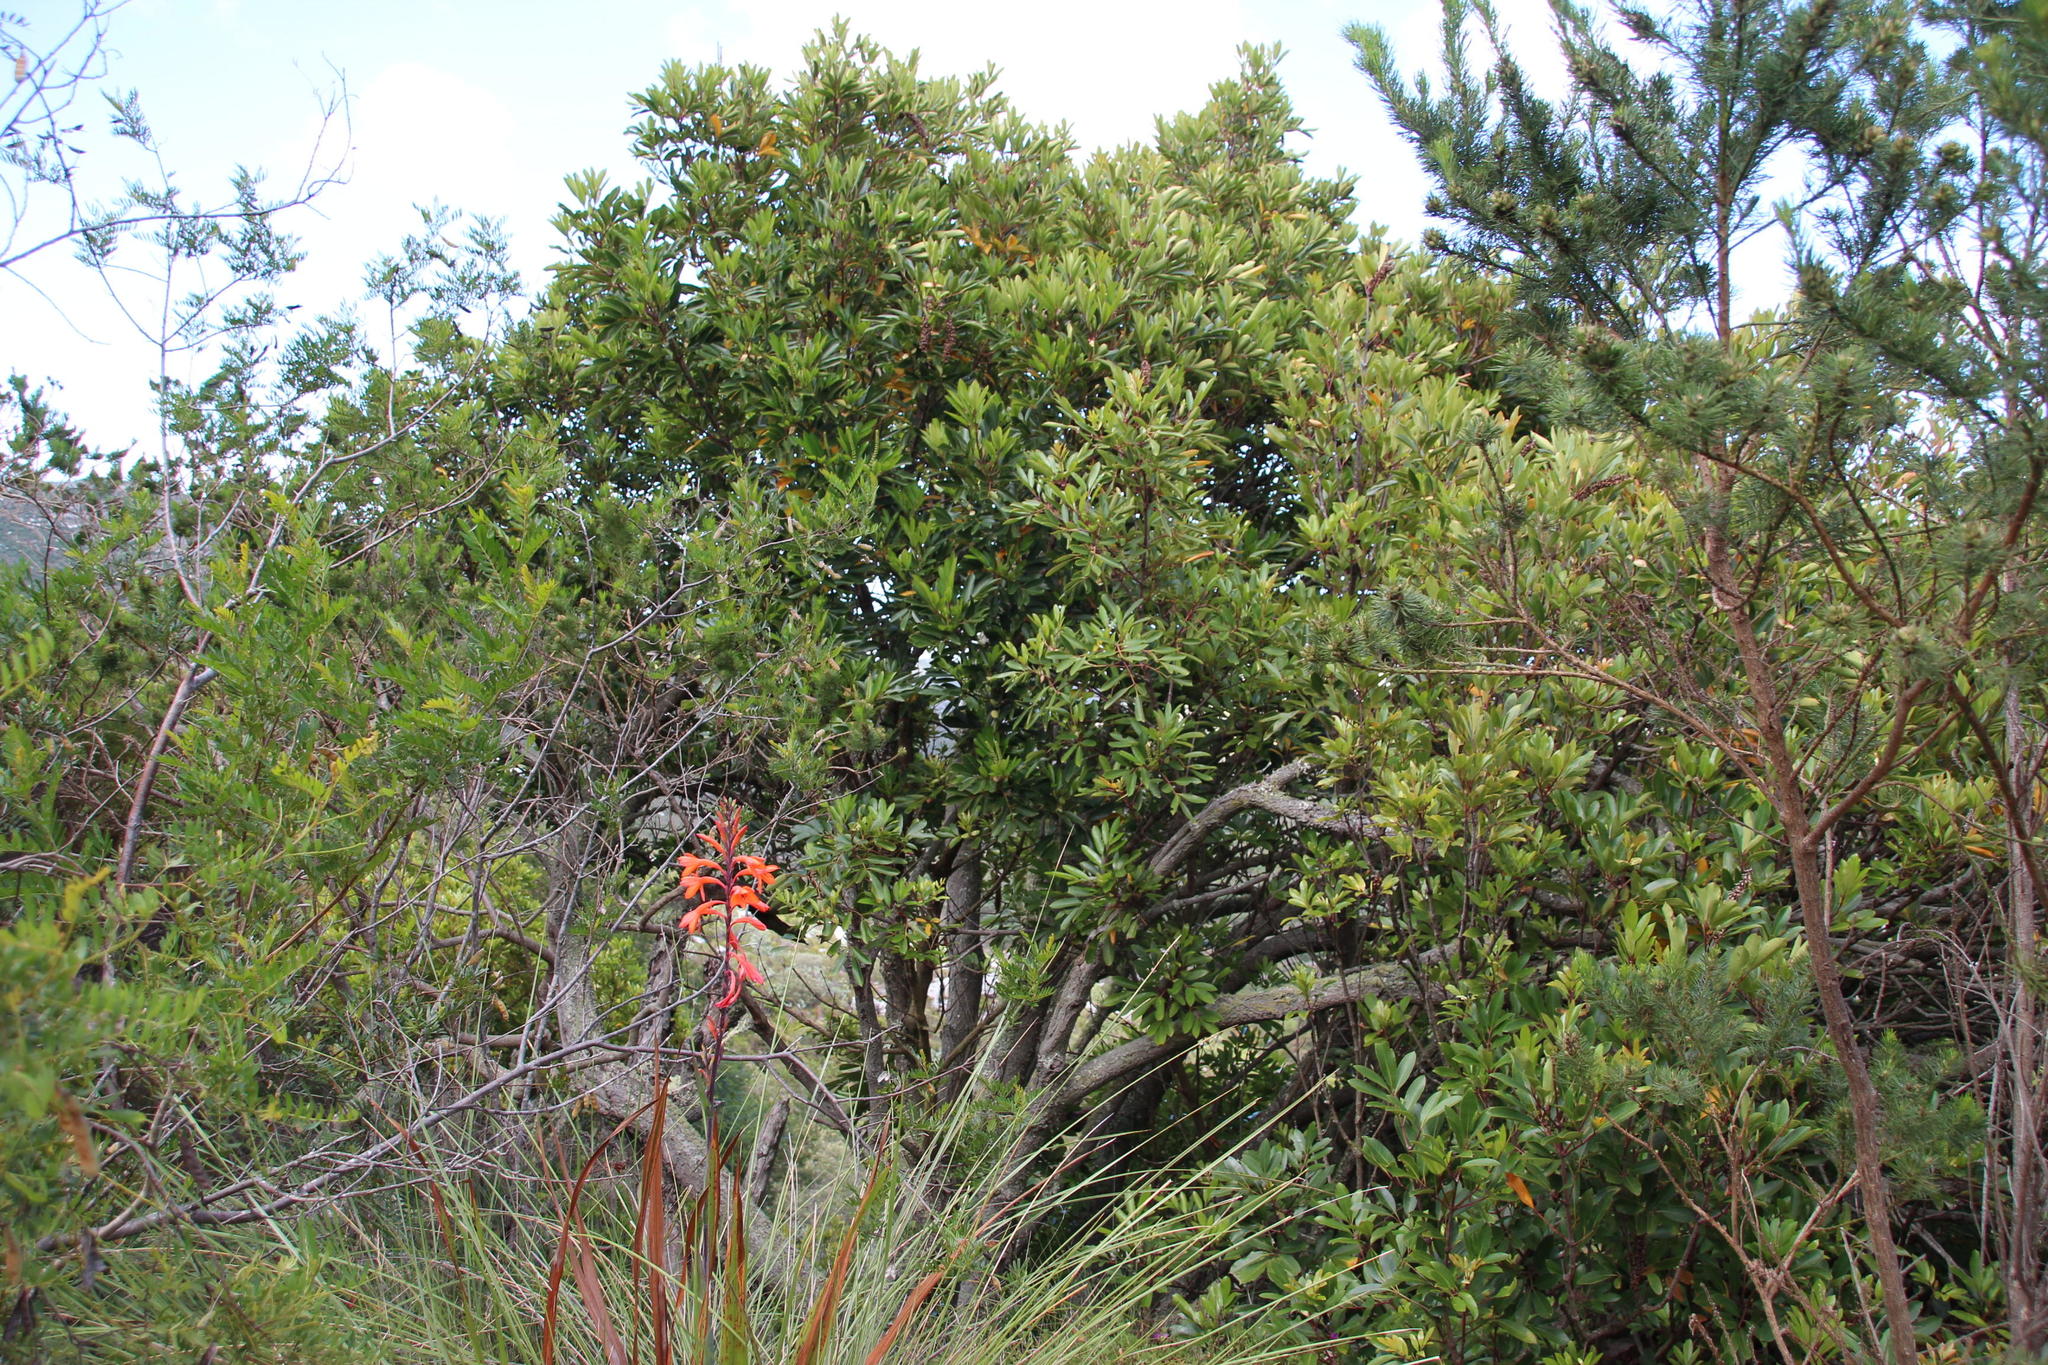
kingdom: Plantae
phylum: Tracheophyta
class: Magnoliopsida
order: Oxalidales
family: Cunoniaceae
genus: Cunonia
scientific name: Cunonia capensis
